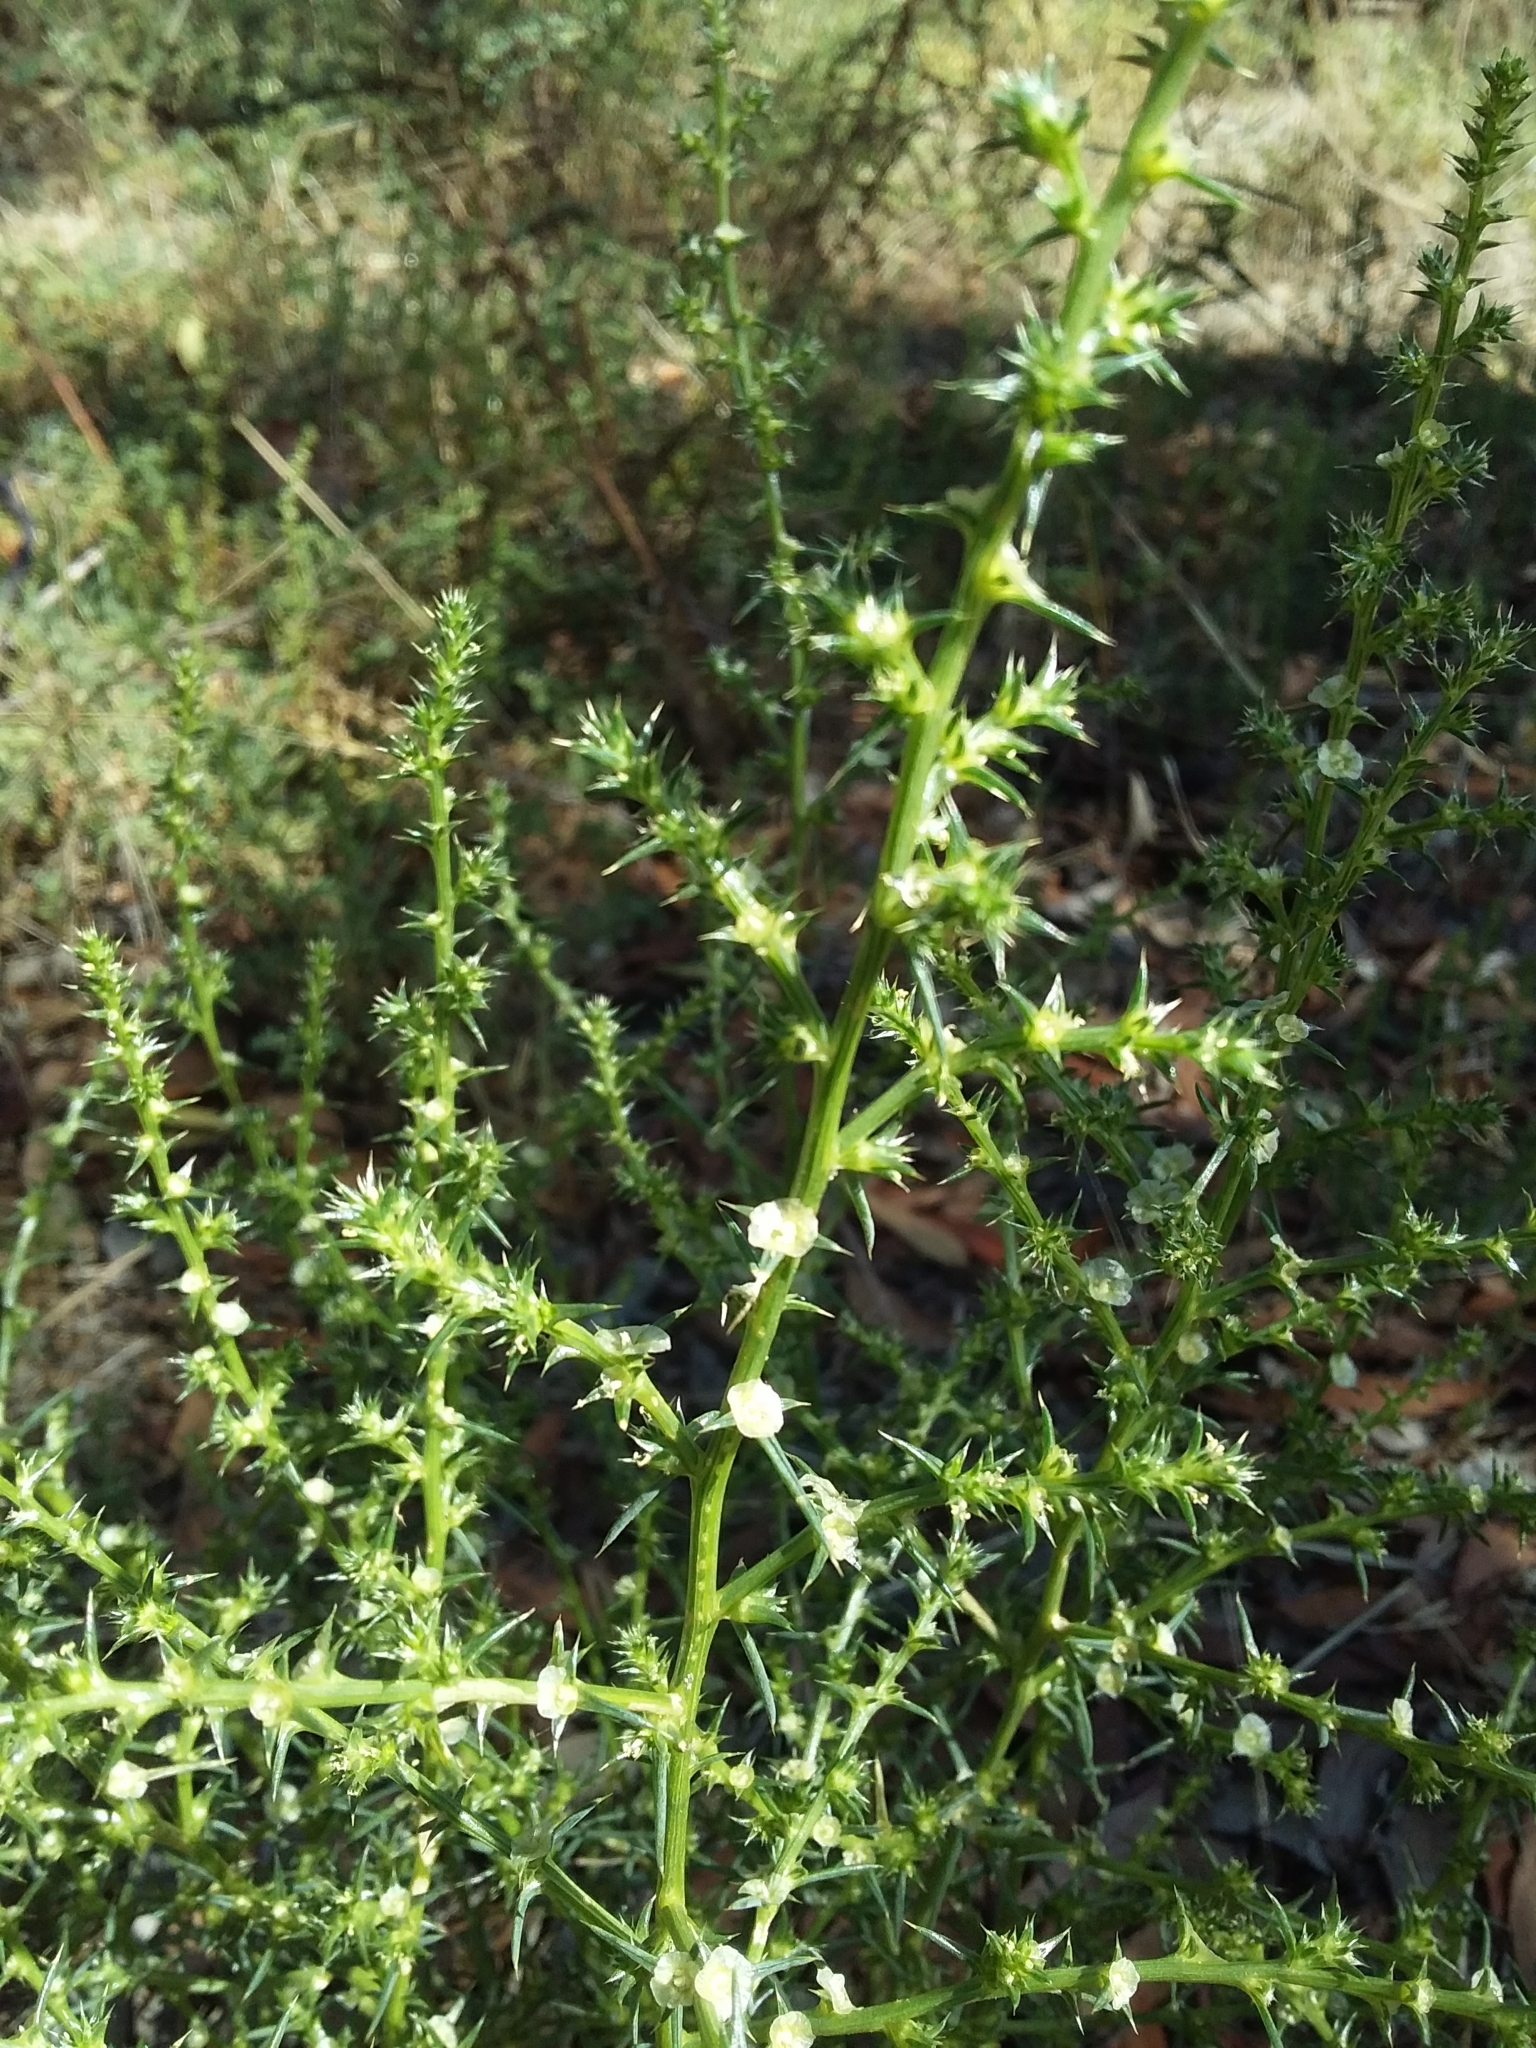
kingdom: Plantae
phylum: Tracheophyta
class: Magnoliopsida
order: Caryophyllales
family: Amaranthaceae
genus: Salsola
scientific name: Salsola australis
